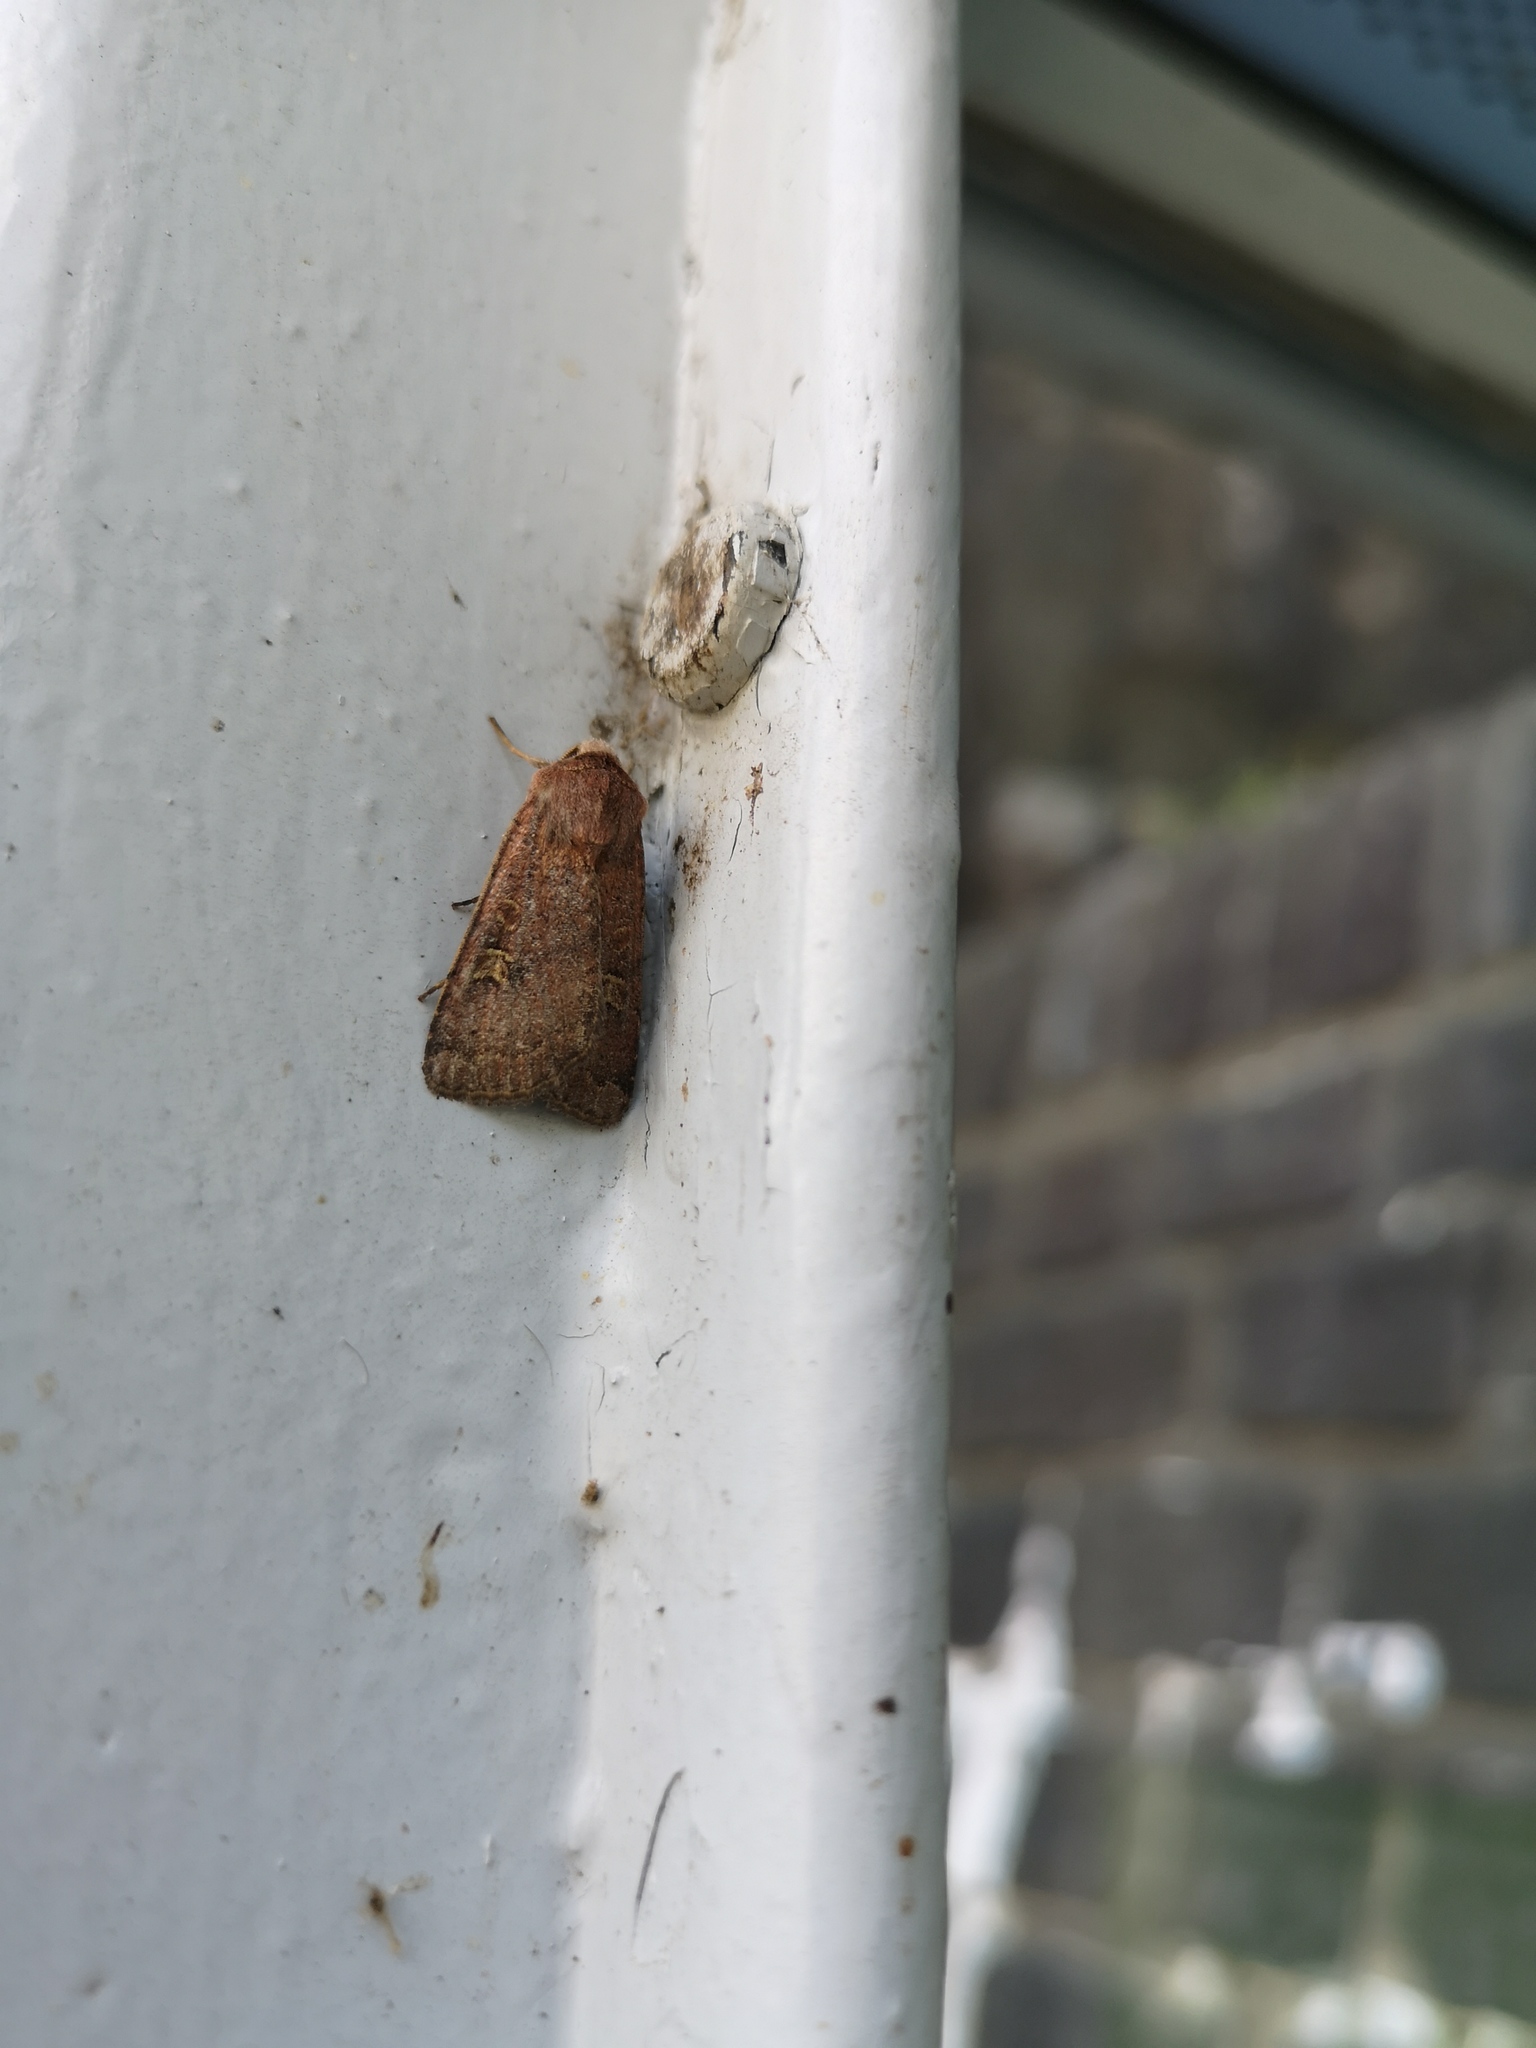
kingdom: Animalia
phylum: Arthropoda
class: Insecta
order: Lepidoptera
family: Noctuidae
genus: Xestia
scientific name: Xestia xanthographa
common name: Square-spot rustic
